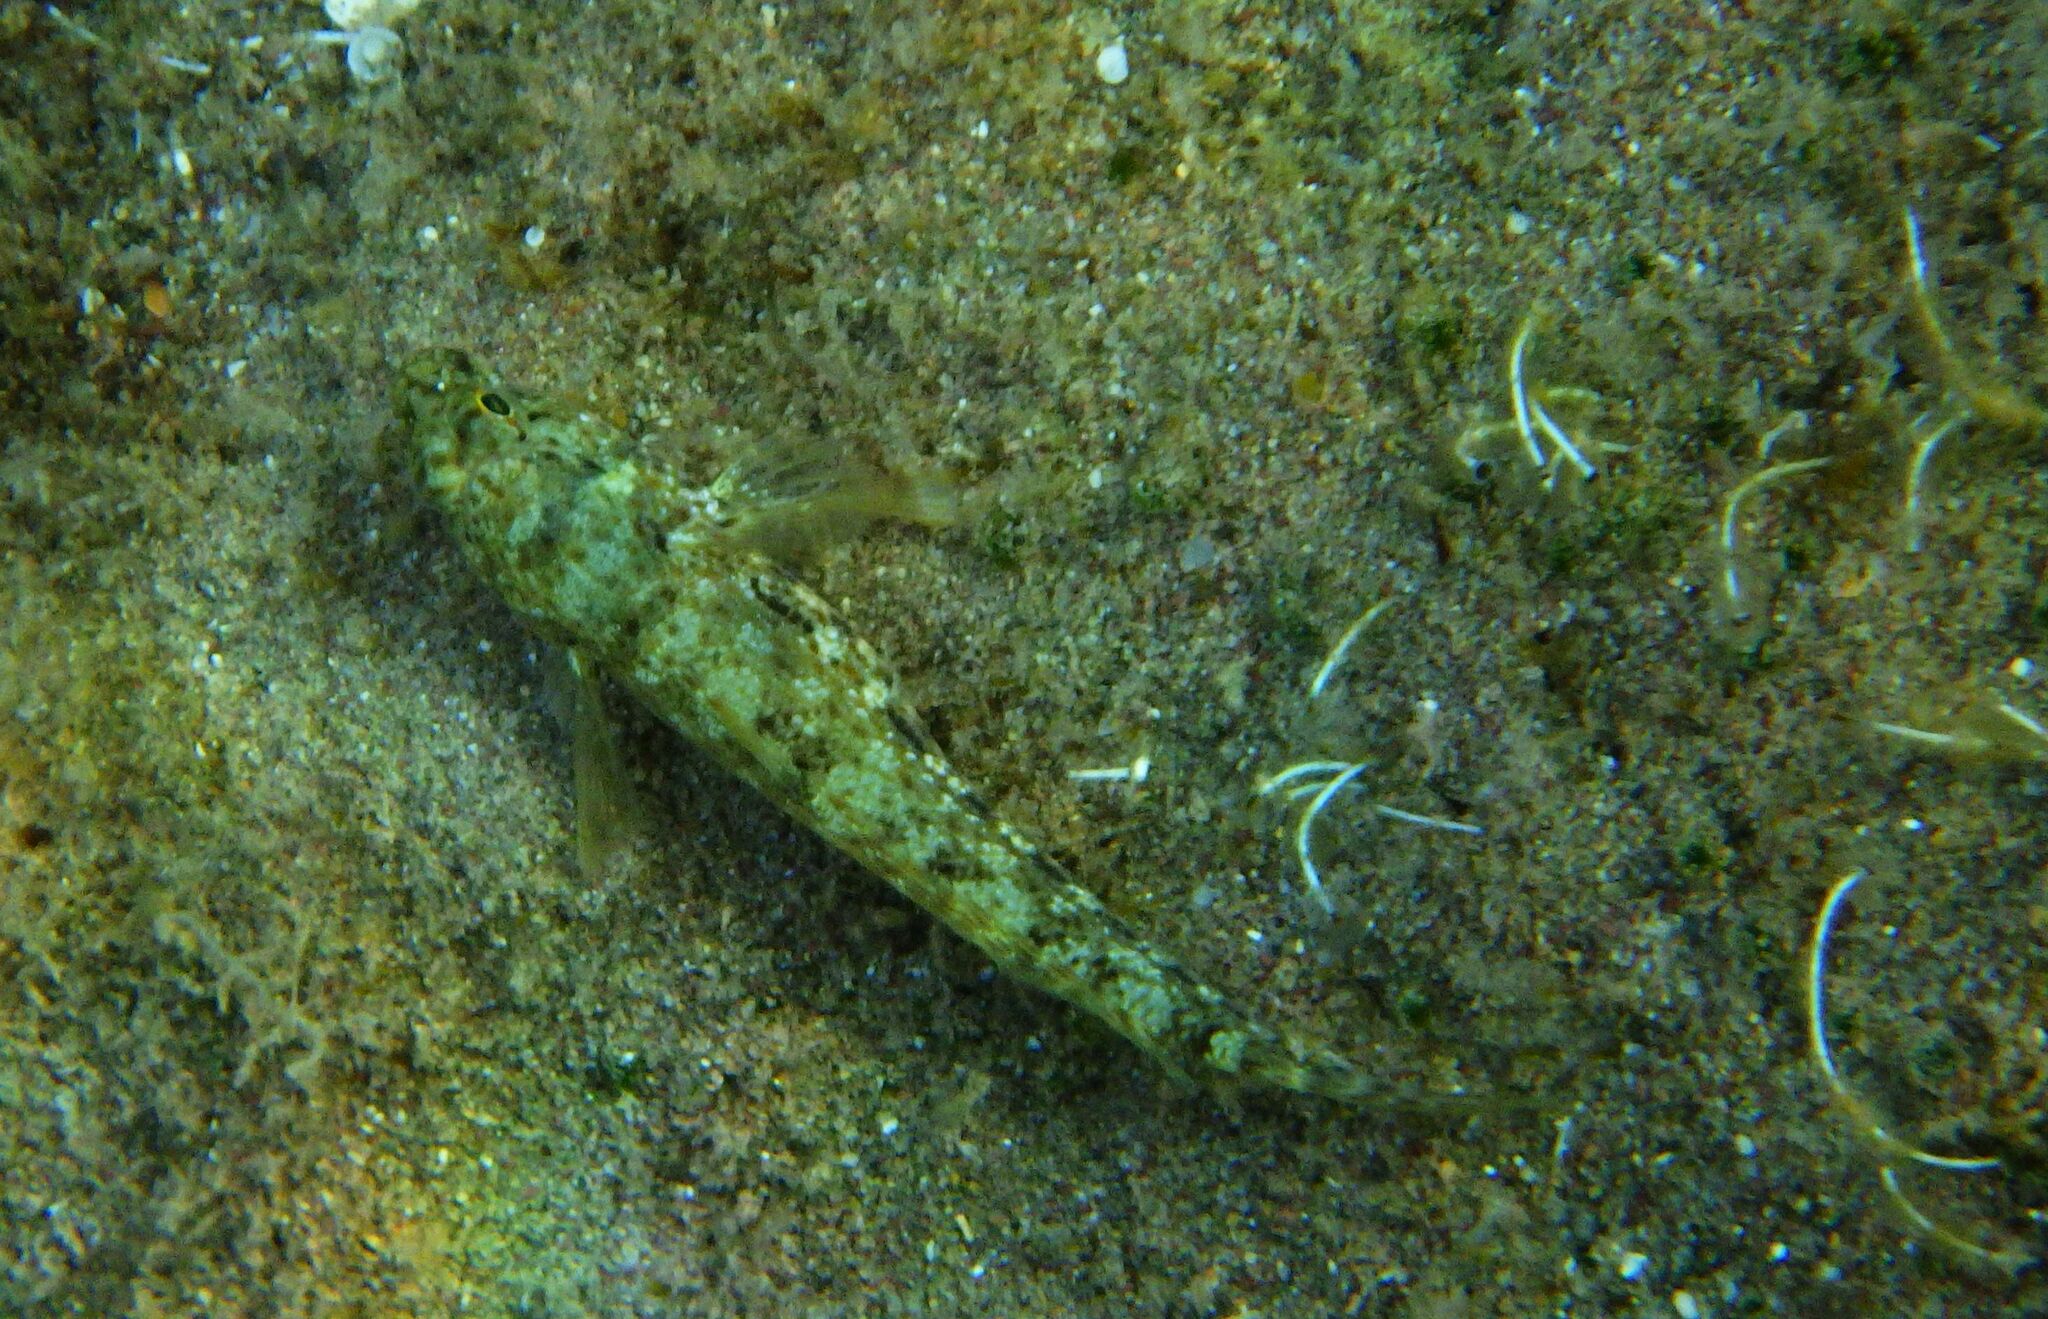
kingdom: Animalia
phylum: Chordata
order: Perciformes
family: Gobiidae
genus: Gobius
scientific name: Gobius incognitus
